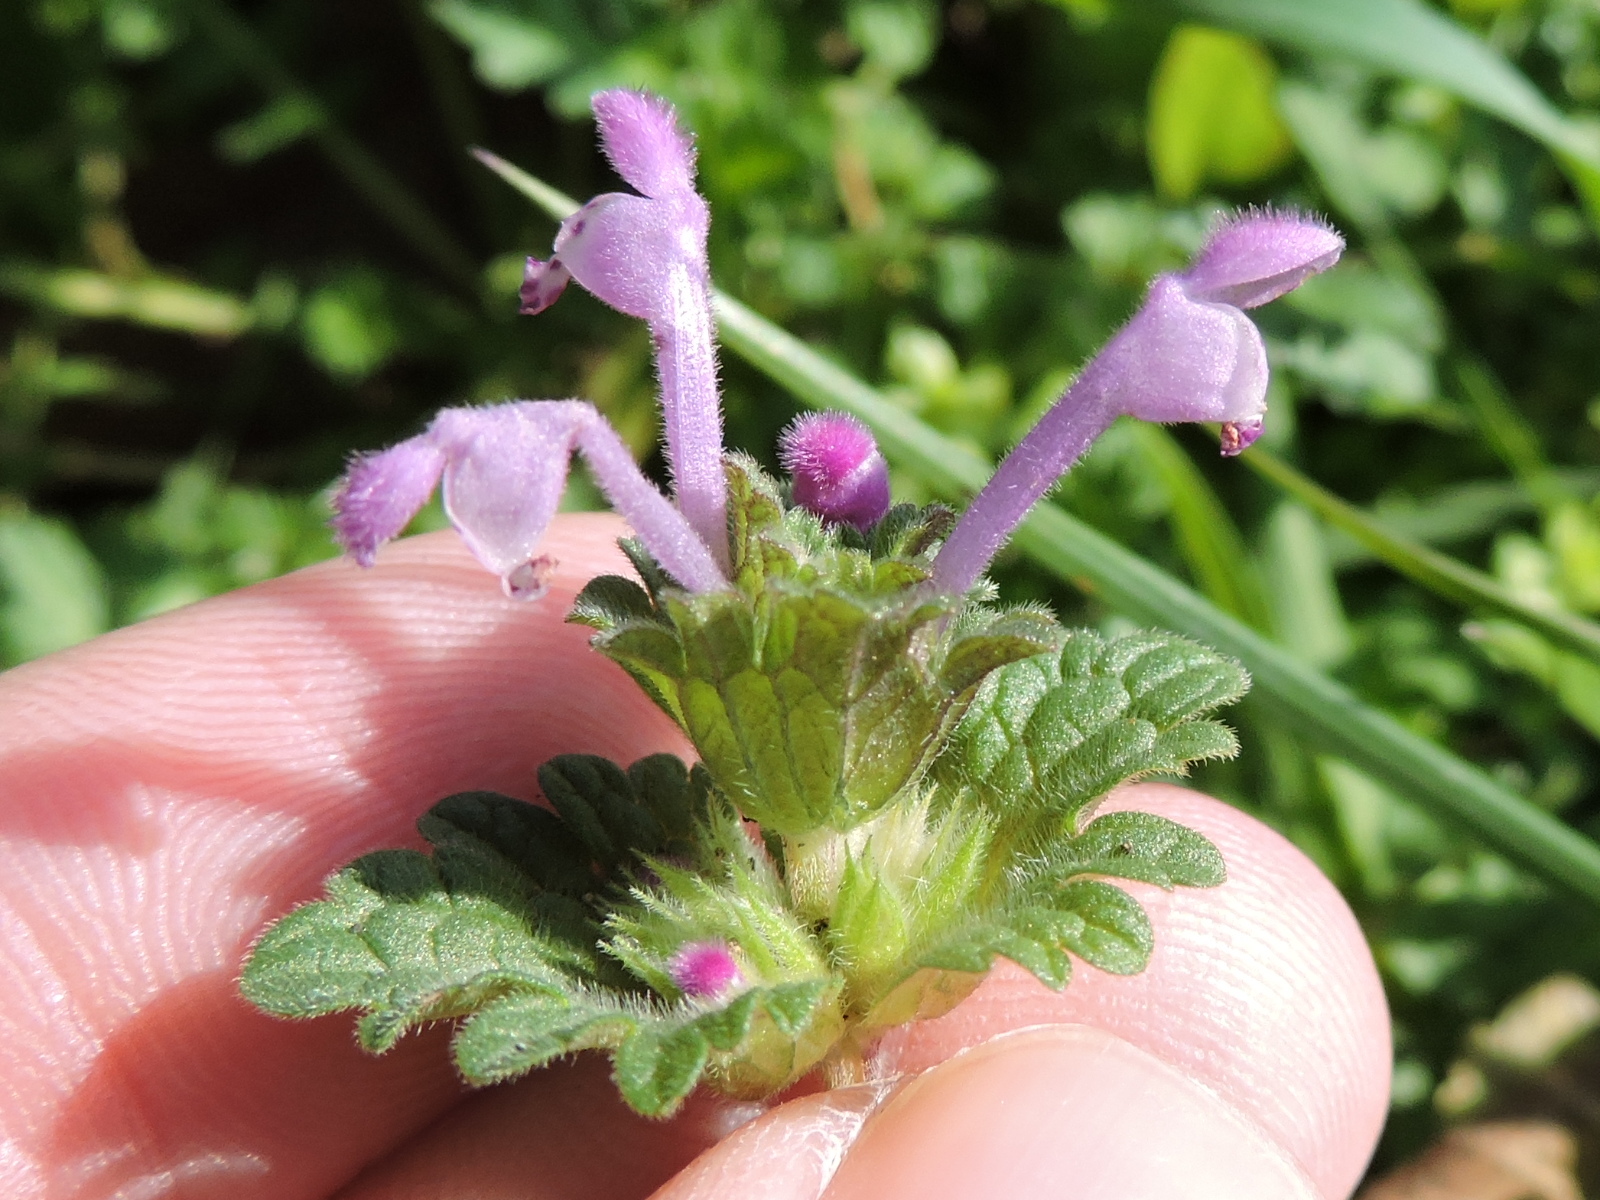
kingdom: Plantae
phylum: Tracheophyta
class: Magnoliopsida
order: Lamiales
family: Lamiaceae
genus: Lamium
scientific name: Lamium amplexicaule
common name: Henbit dead-nettle
